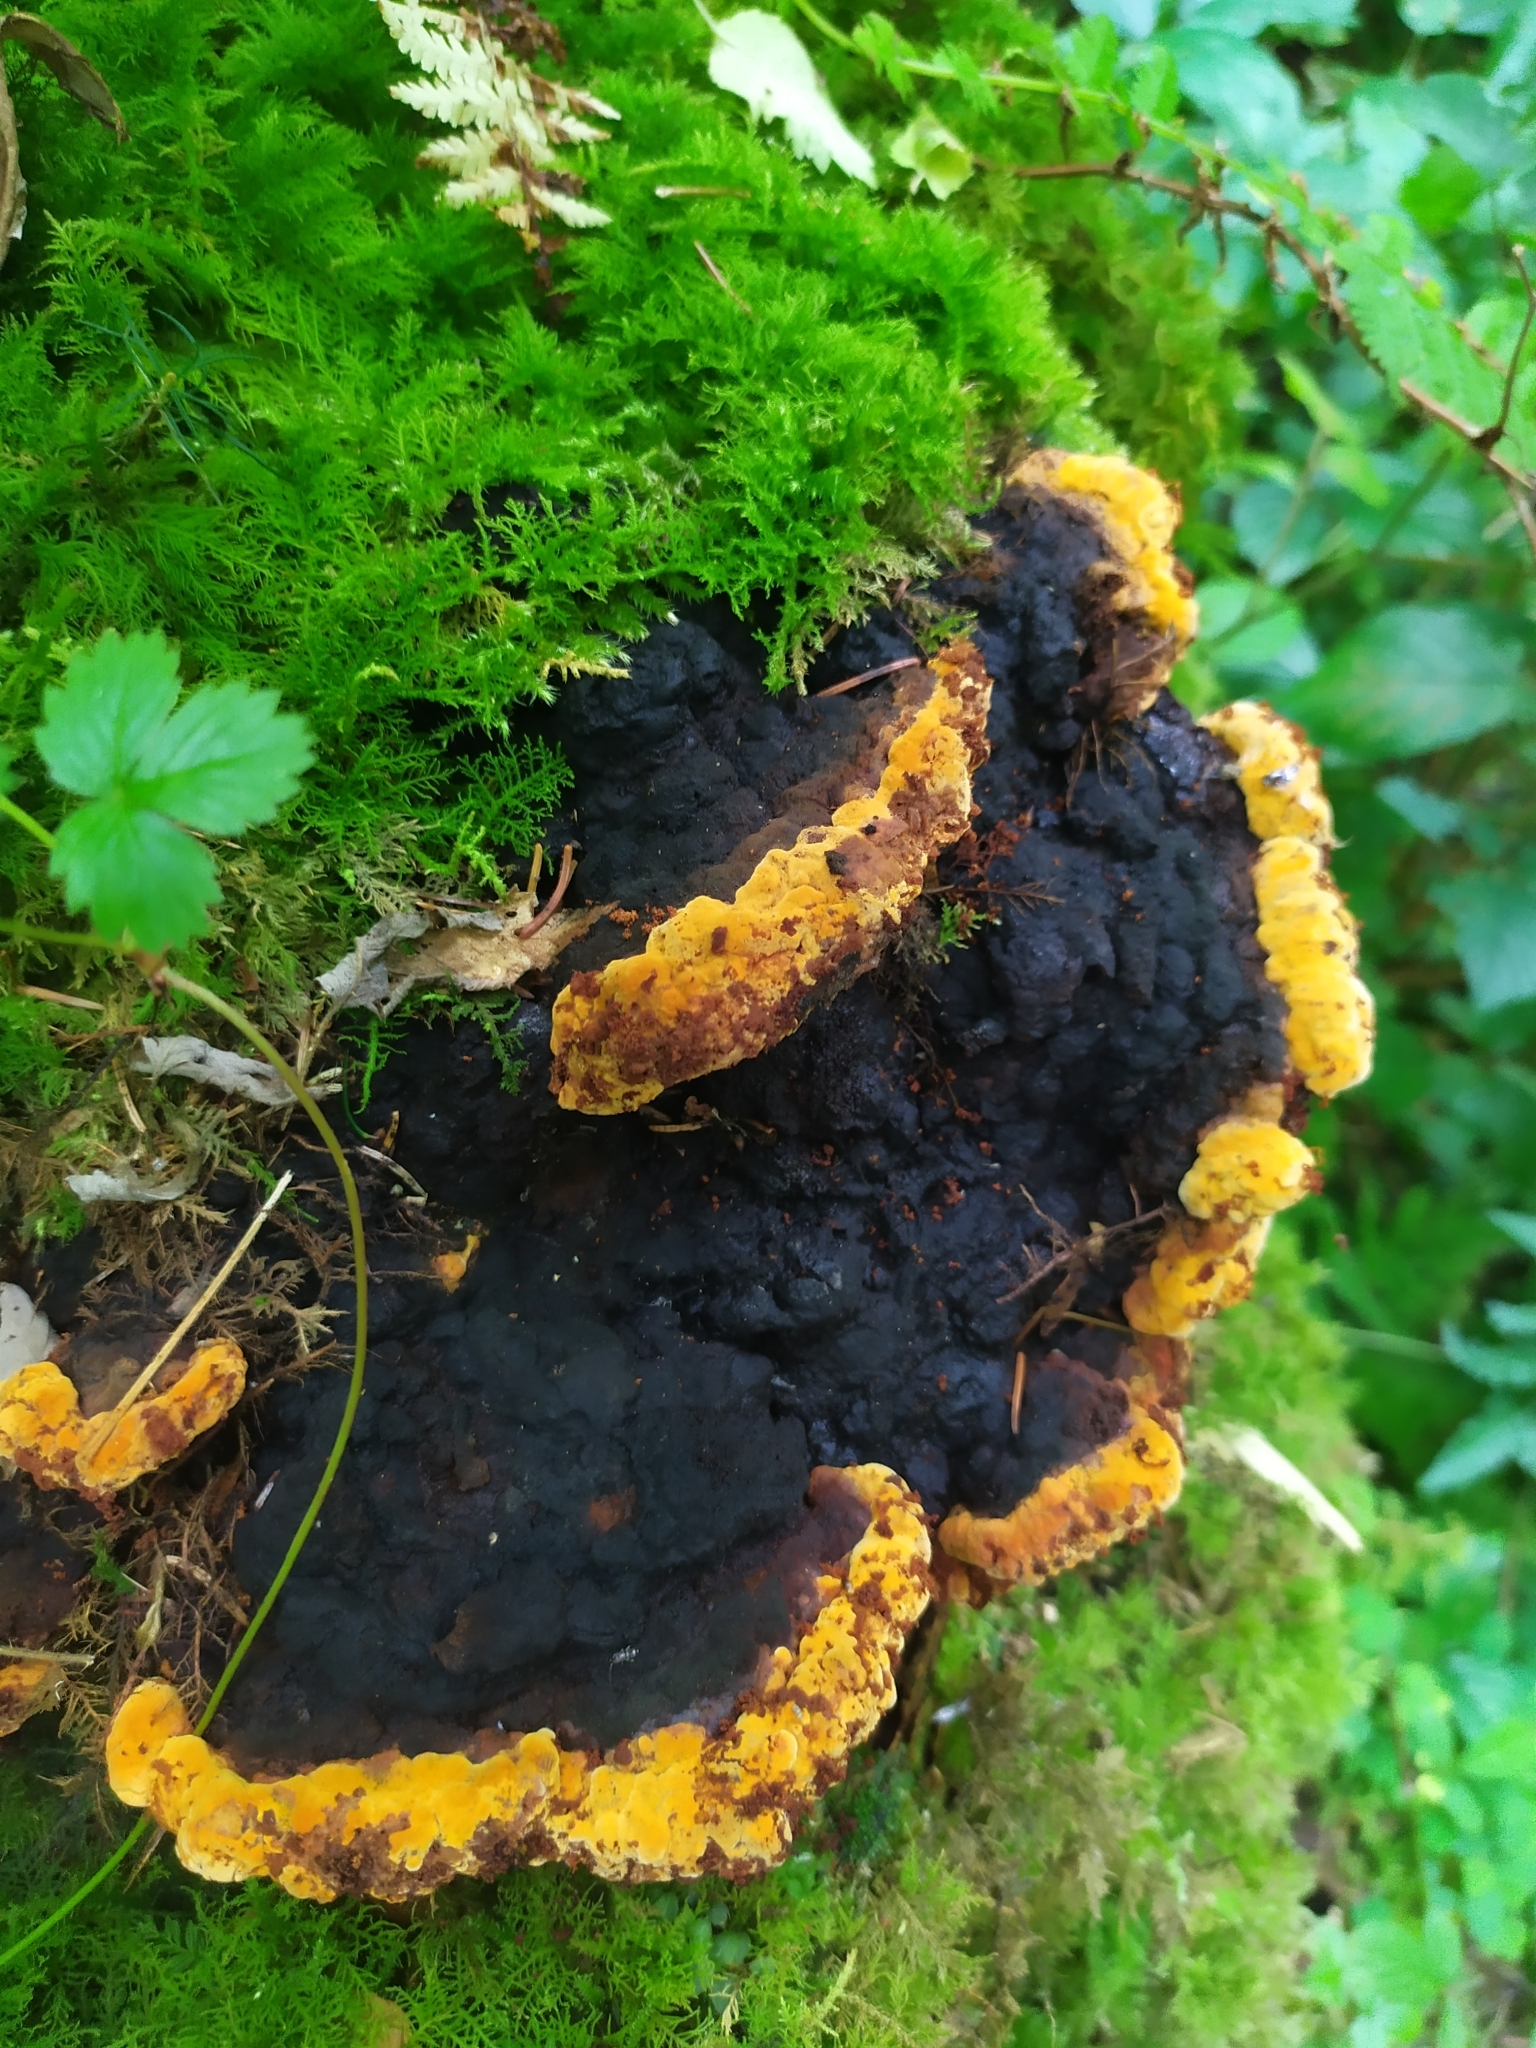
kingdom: Fungi
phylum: Basidiomycota
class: Agaricomycetes
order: Gloeophyllales
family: Gloeophyllaceae
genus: Gloeophyllum
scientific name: Gloeophyllum odoratum
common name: Anise mazegill
